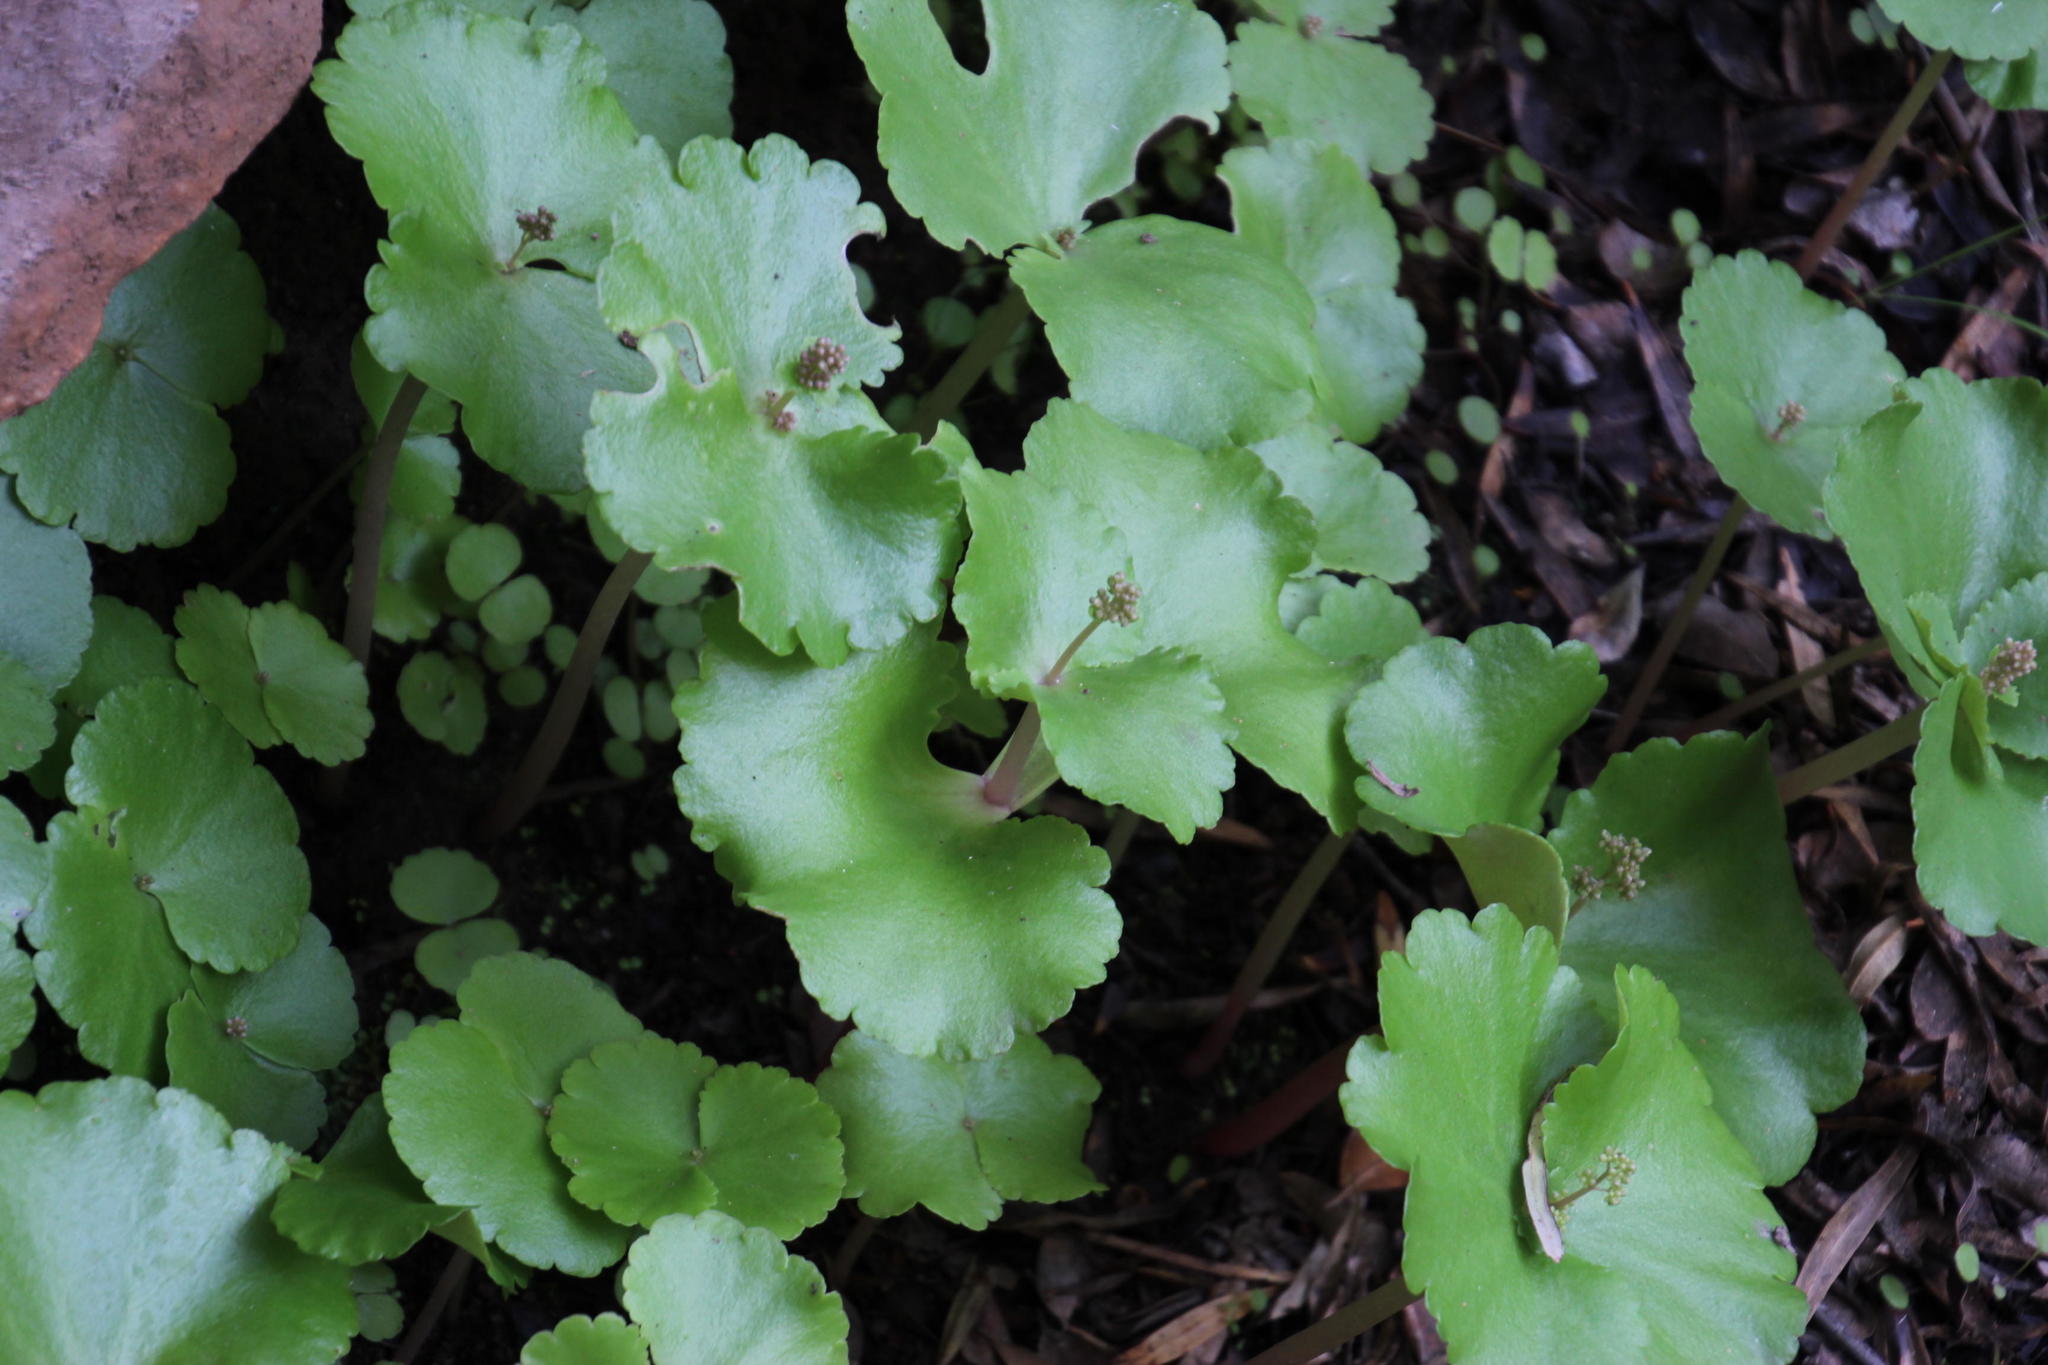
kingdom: Plantae
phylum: Tracheophyta
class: Magnoliopsida
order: Saxifragales
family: Crassulaceae
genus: Crassula
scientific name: Crassula umbella
